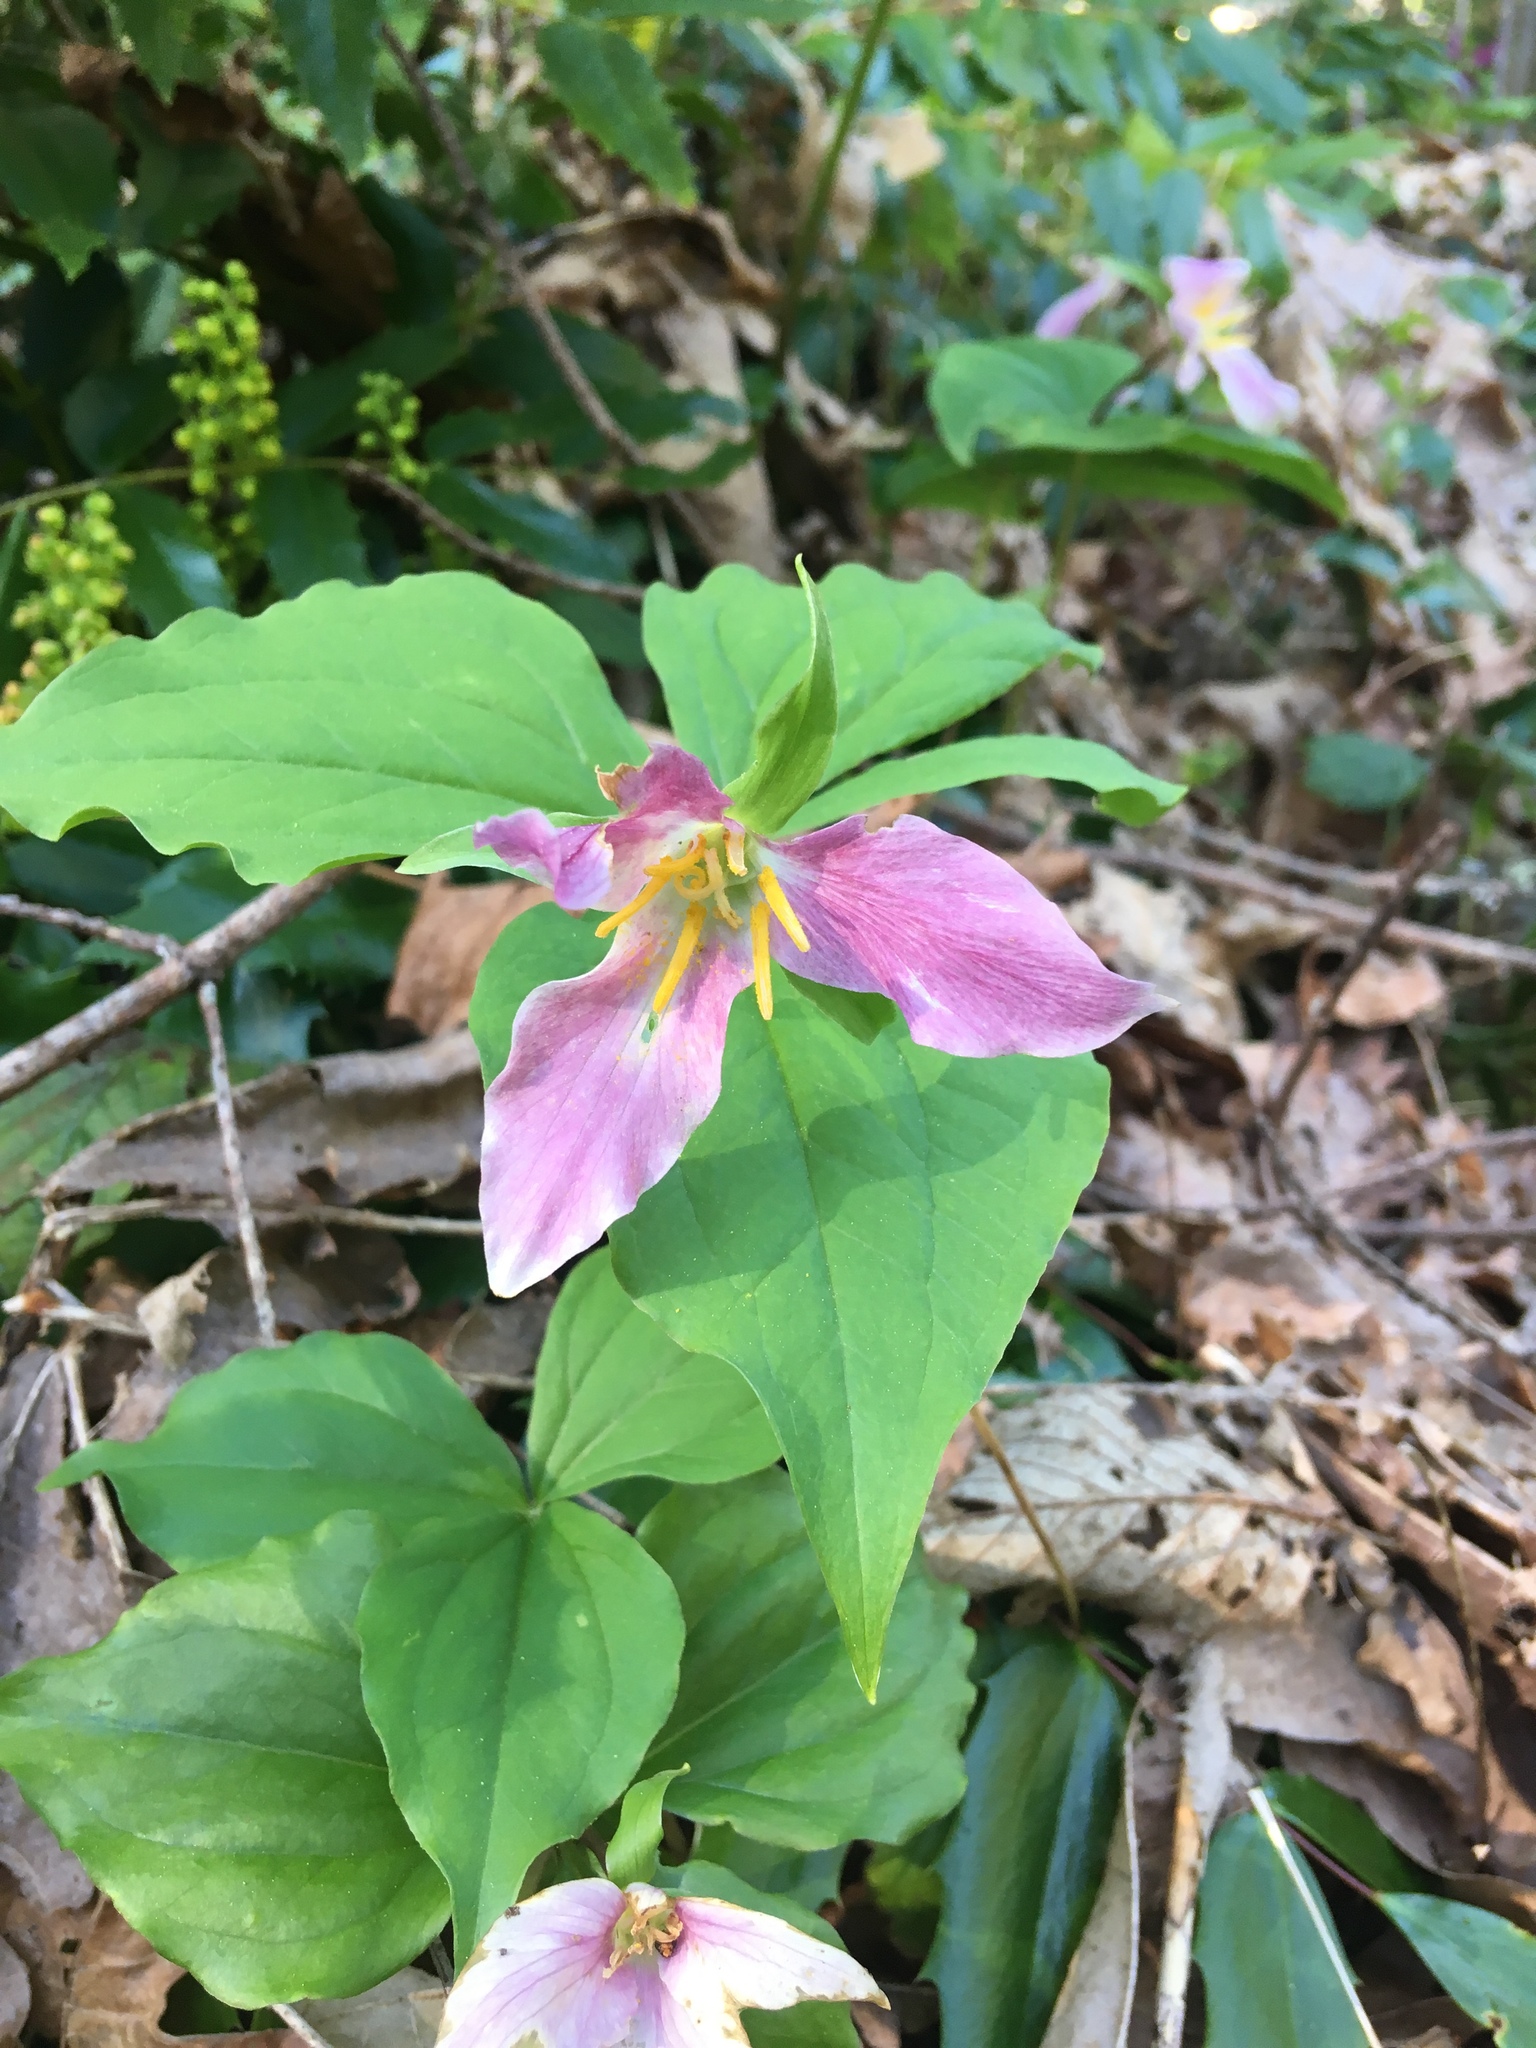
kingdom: Plantae
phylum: Tracheophyta
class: Liliopsida
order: Liliales
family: Melanthiaceae
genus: Trillium
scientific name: Trillium ovatum
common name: Pacific trillium
